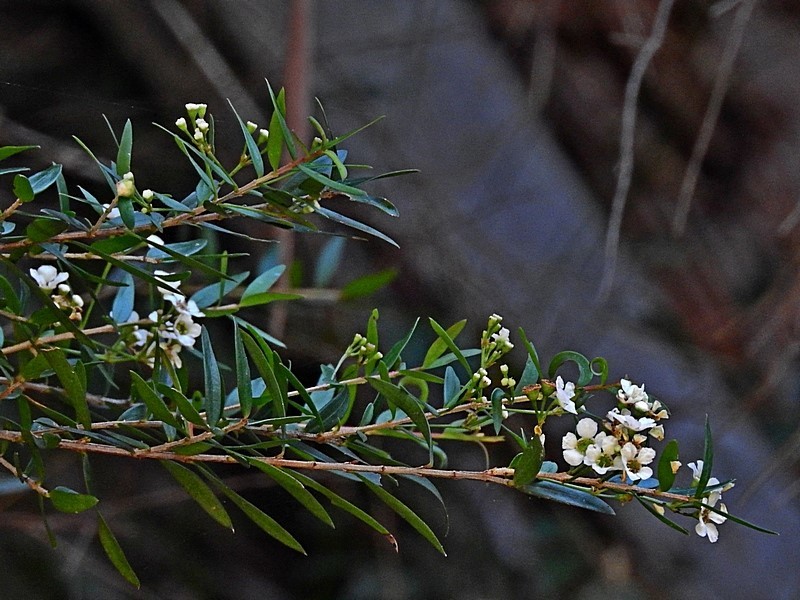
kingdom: Plantae
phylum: Tracheophyta
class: Magnoliopsida
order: Myrtales
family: Myrtaceae
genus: Sannantha
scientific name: Sannantha pluriflora
